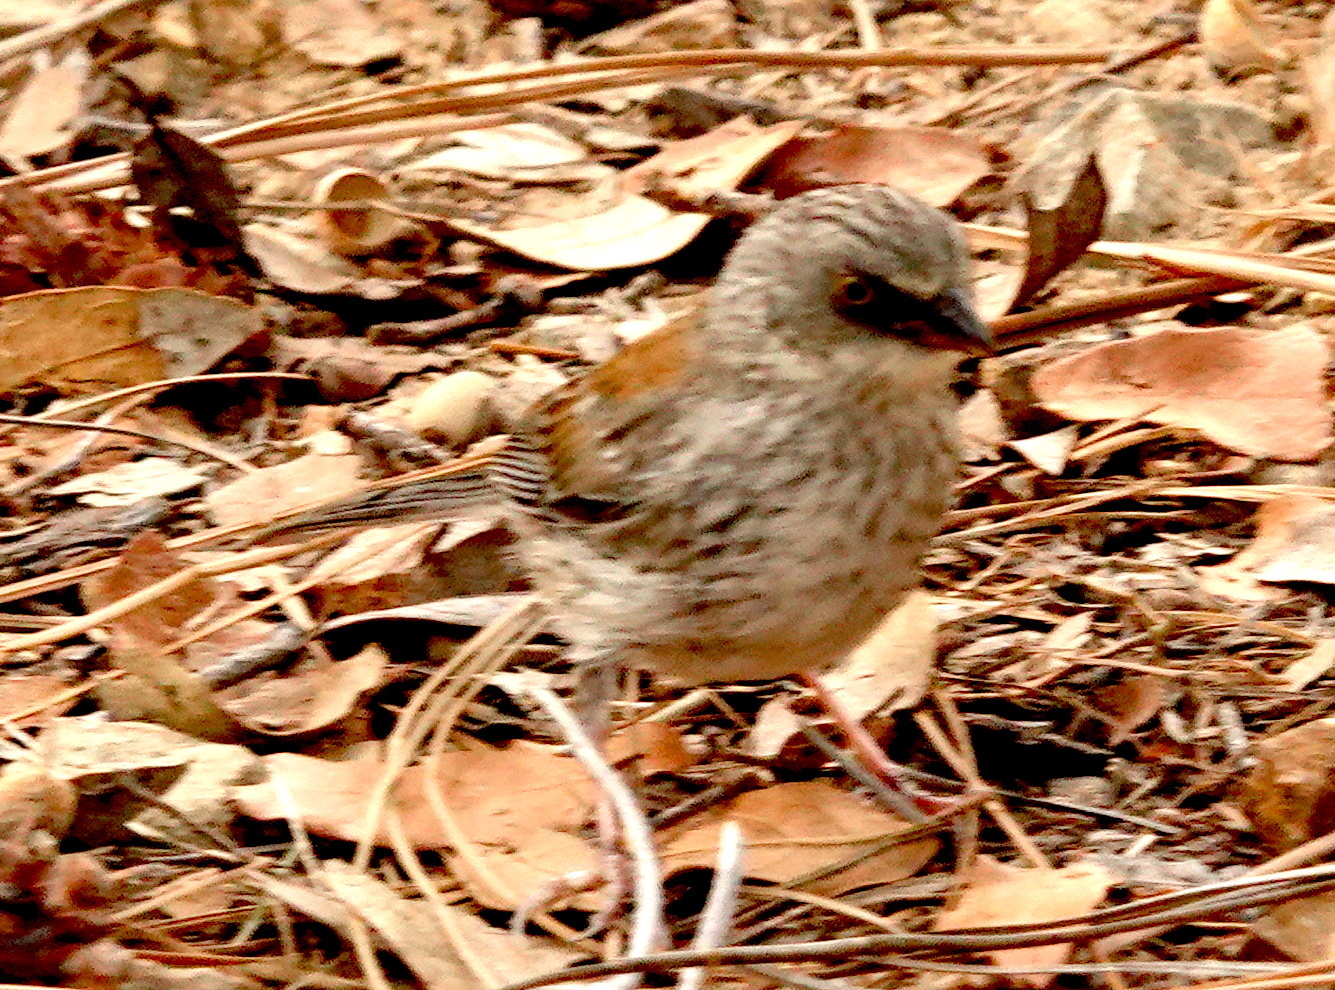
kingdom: Animalia
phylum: Chordata
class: Aves
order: Passeriformes
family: Passerellidae
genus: Junco
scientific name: Junco phaeonotus
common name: Yellow-eyed junco
